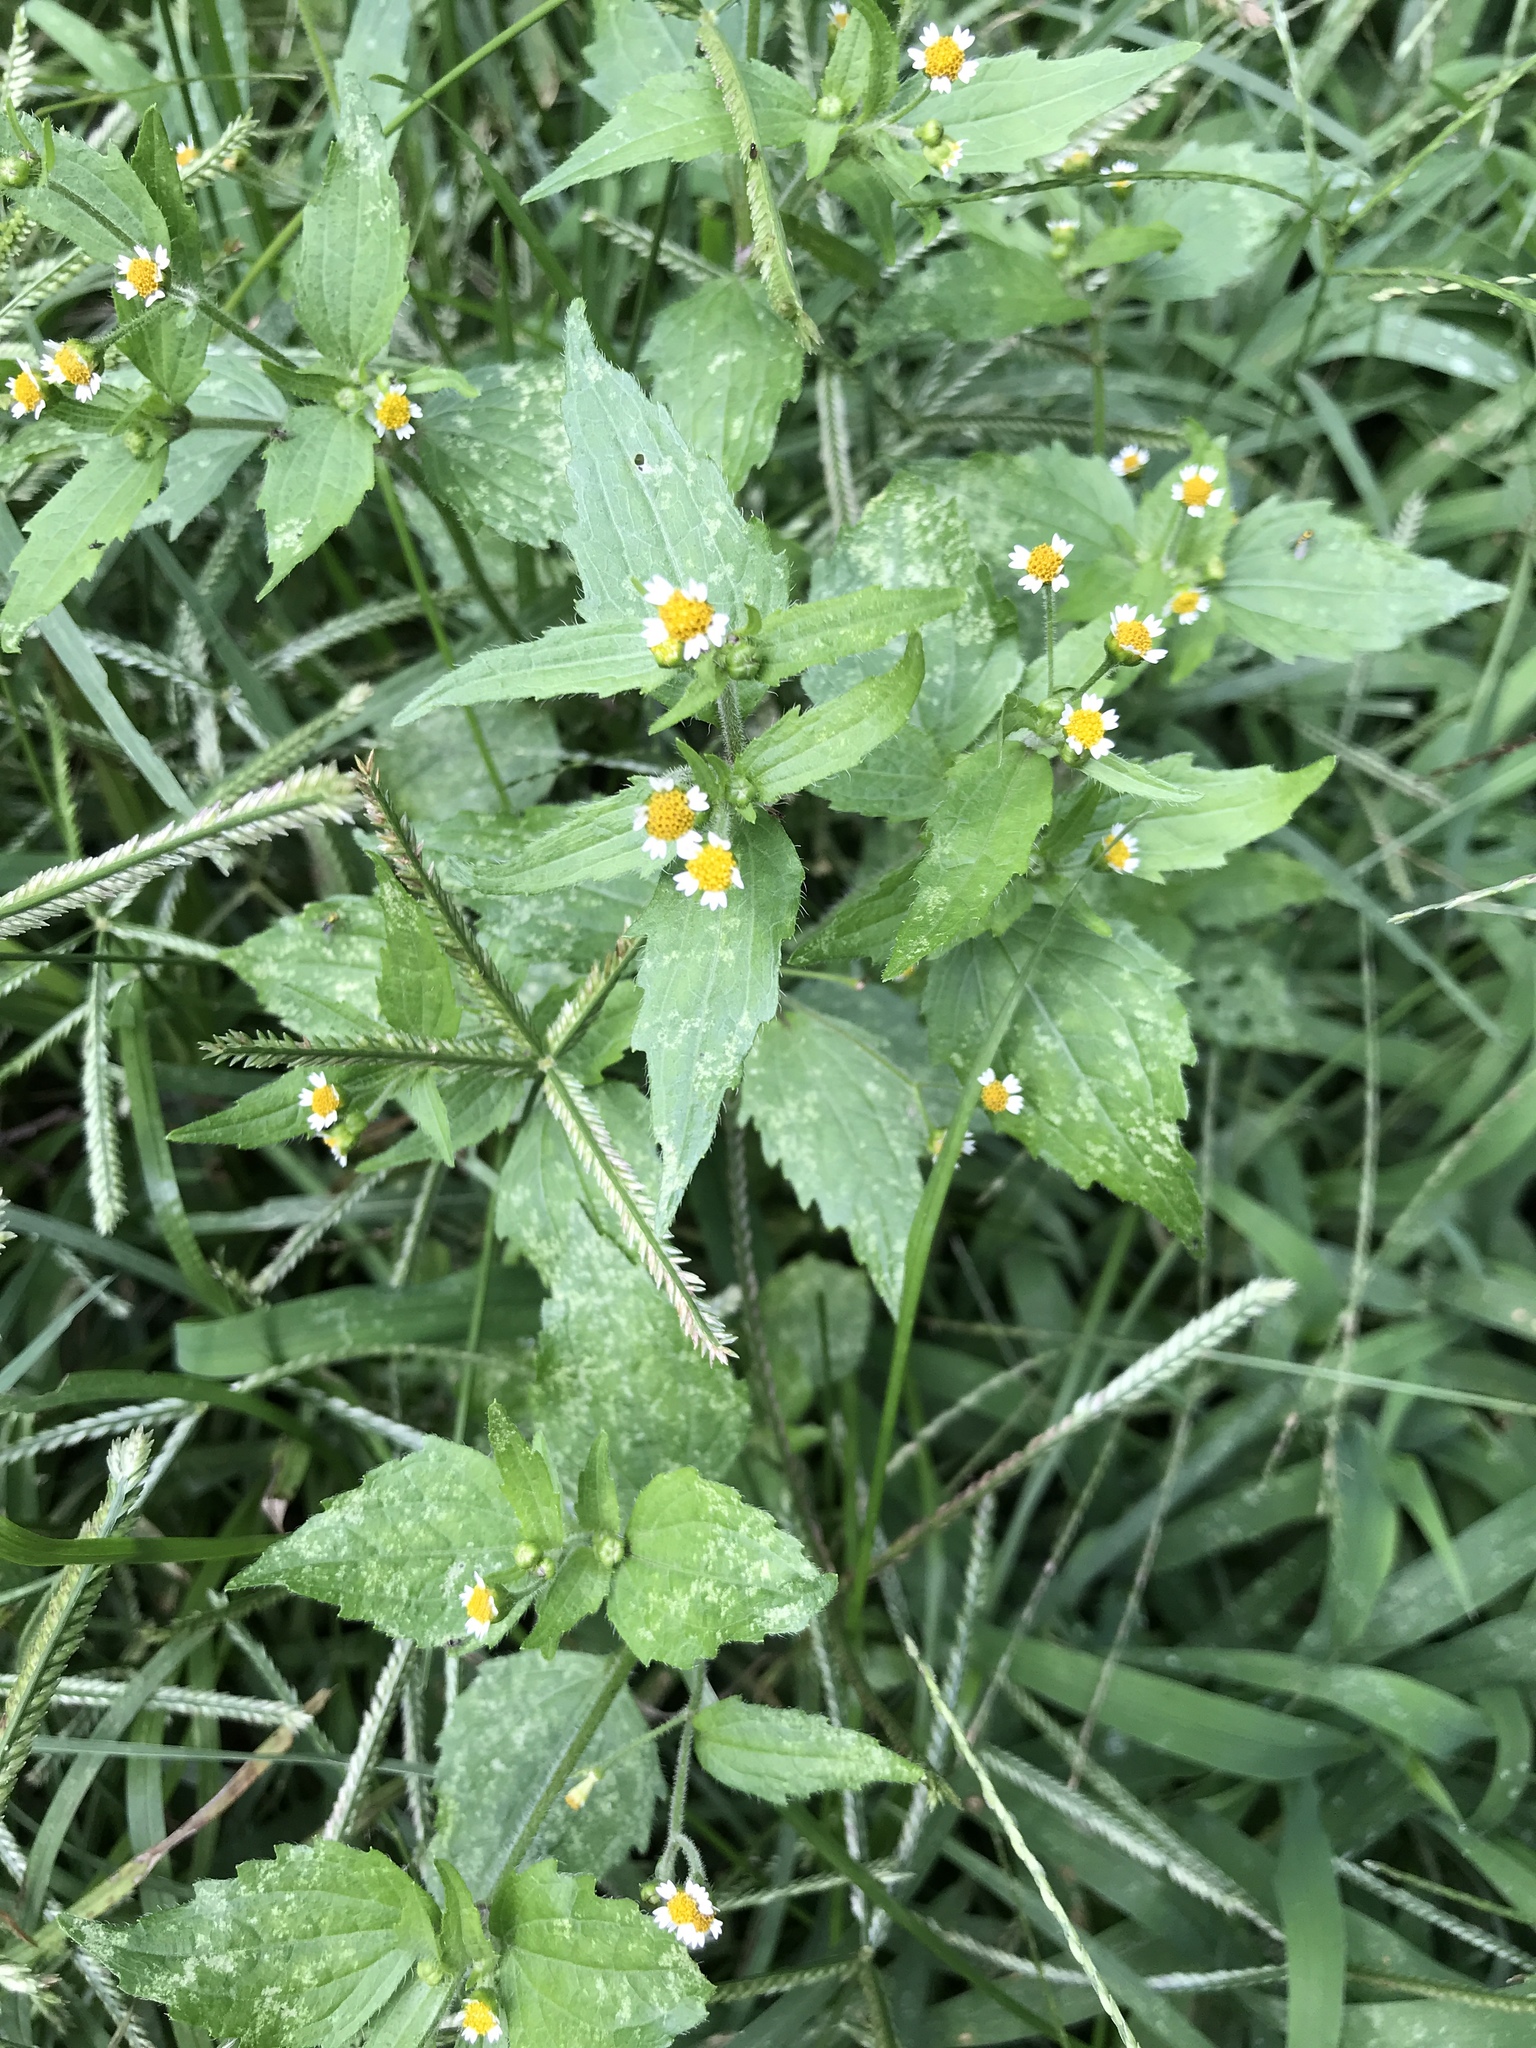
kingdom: Plantae
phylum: Tracheophyta
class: Magnoliopsida
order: Asterales
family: Asteraceae
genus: Galinsoga
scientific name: Galinsoga quadriradiata
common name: Shaggy soldier
